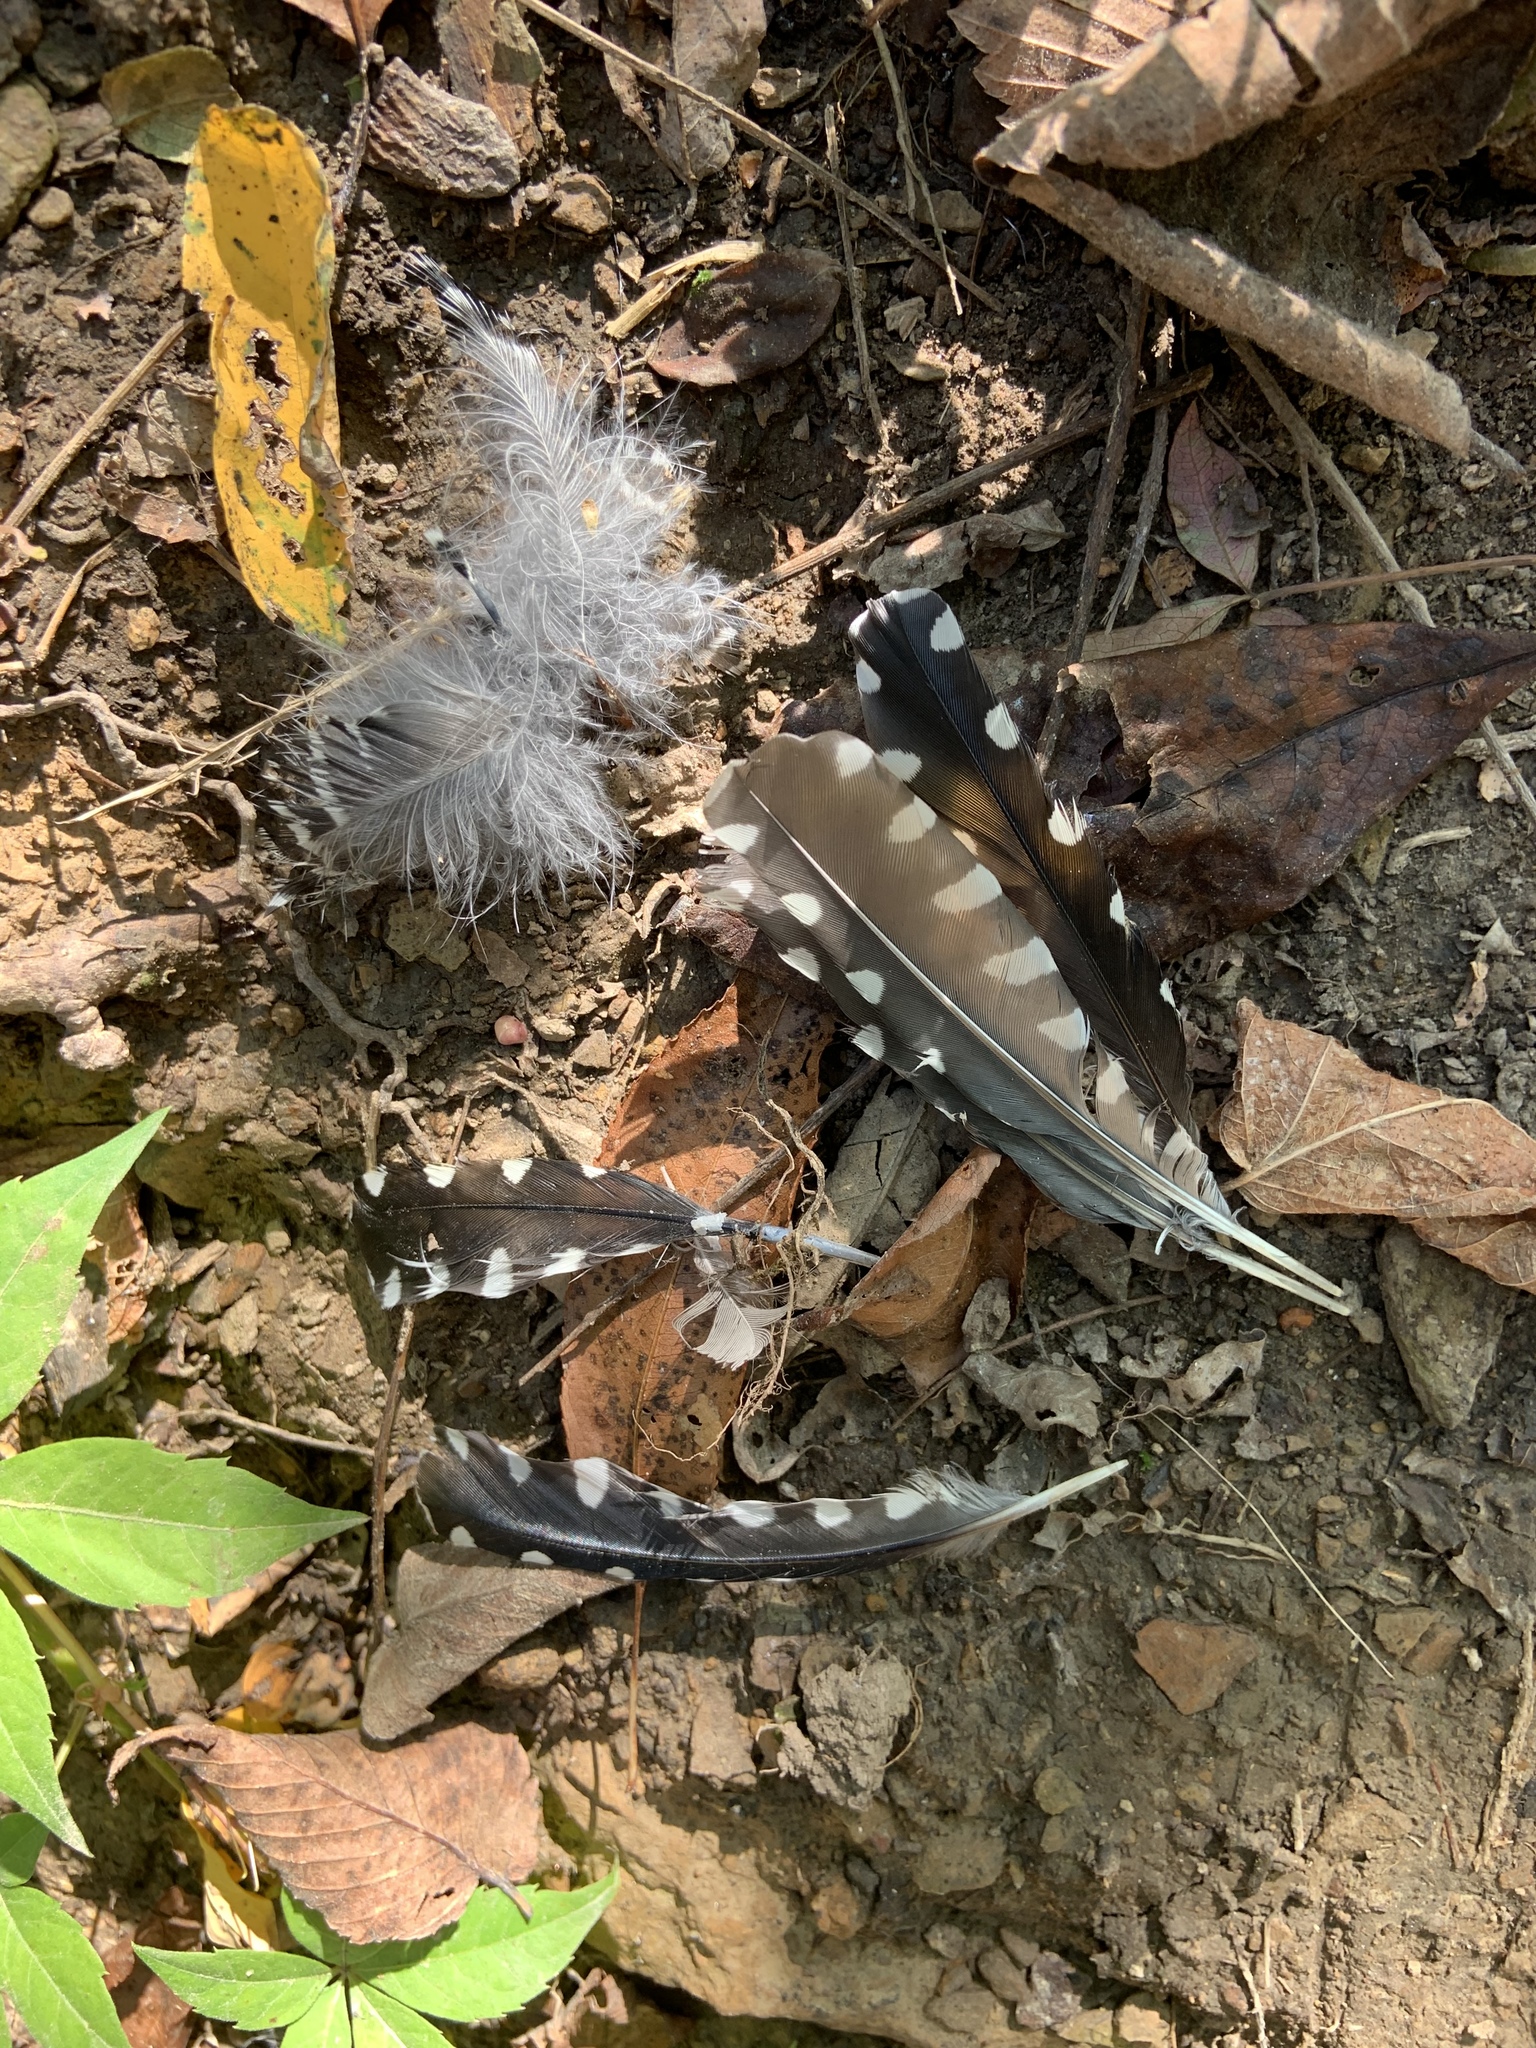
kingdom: Animalia
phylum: Chordata
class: Aves
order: Piciformes
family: Picidae
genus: Melanerpes
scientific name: Melanerpes carolinus
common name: Red-bellied woodpecker
